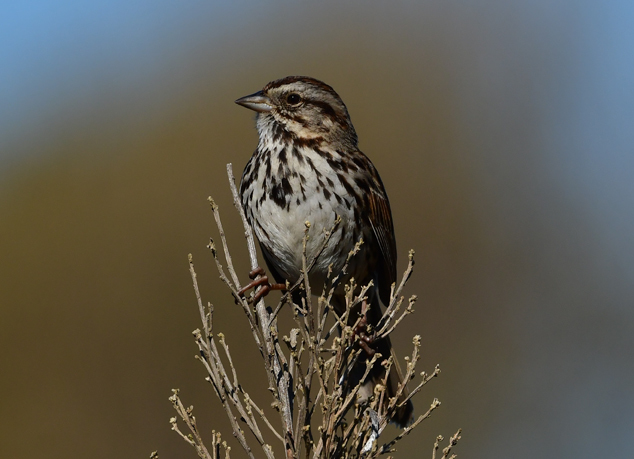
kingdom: Animalia
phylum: Chordata
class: Aves
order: Passeriformes
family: Passerellidae
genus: Melospiza
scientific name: Melospiza melodia
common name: Song sparrow
